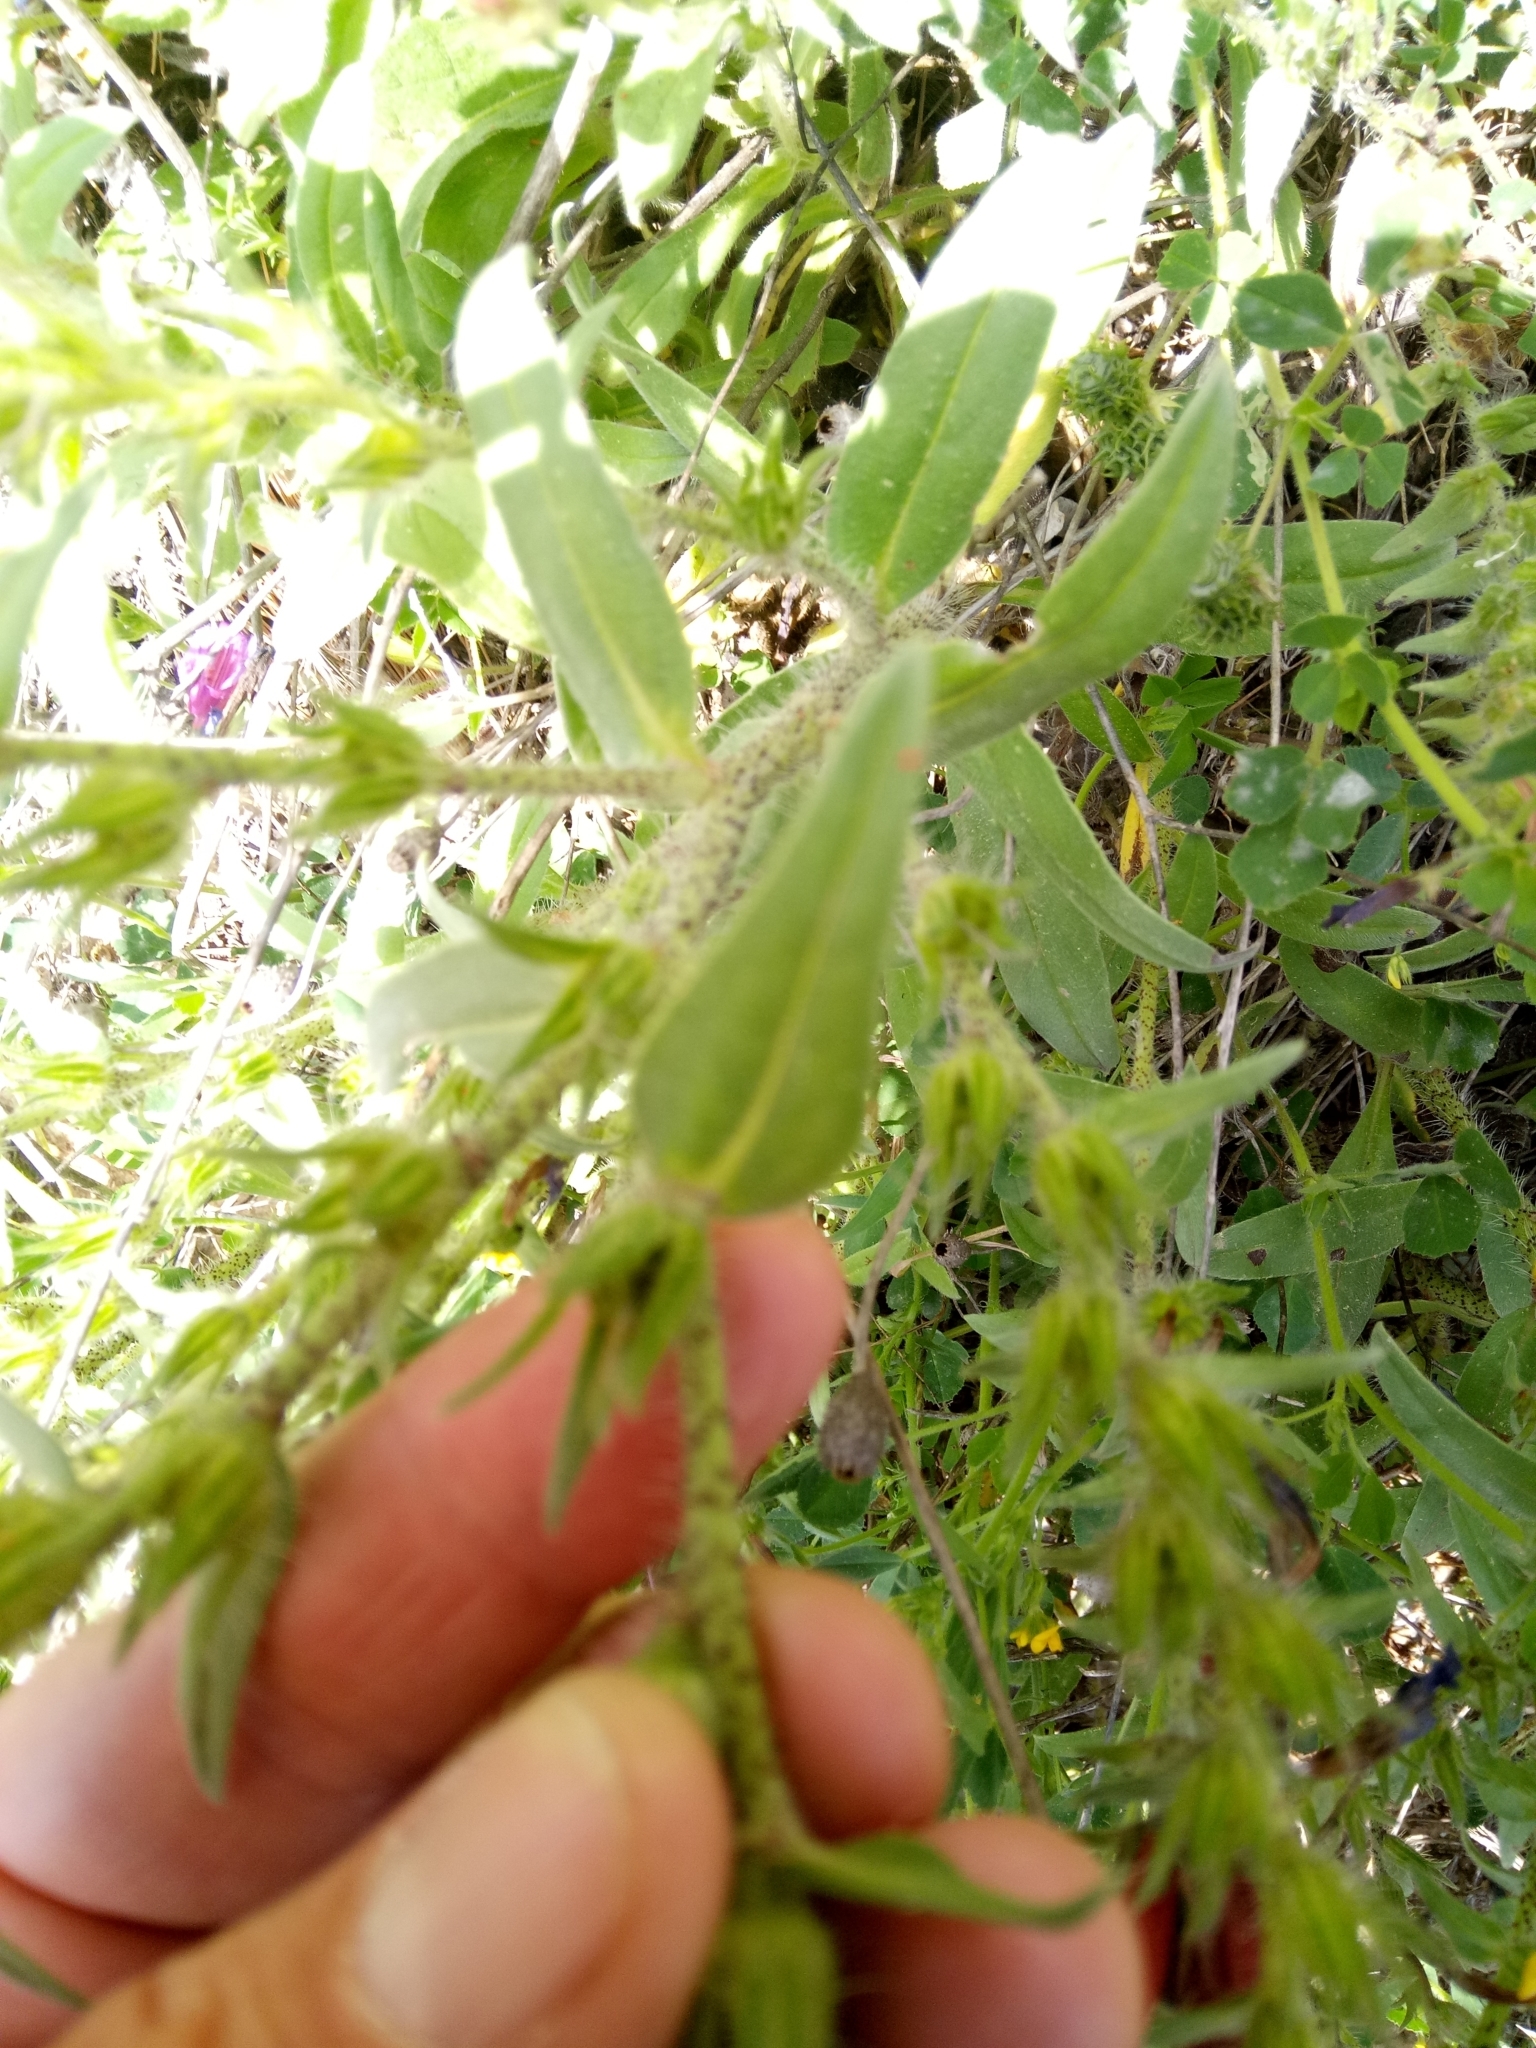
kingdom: Plantae
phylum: Tracheophyta
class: Magnoliopsida
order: Boraginales
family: Boraginaceae
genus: Echium
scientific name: Echium creticum
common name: Cretan viper's bugloss
